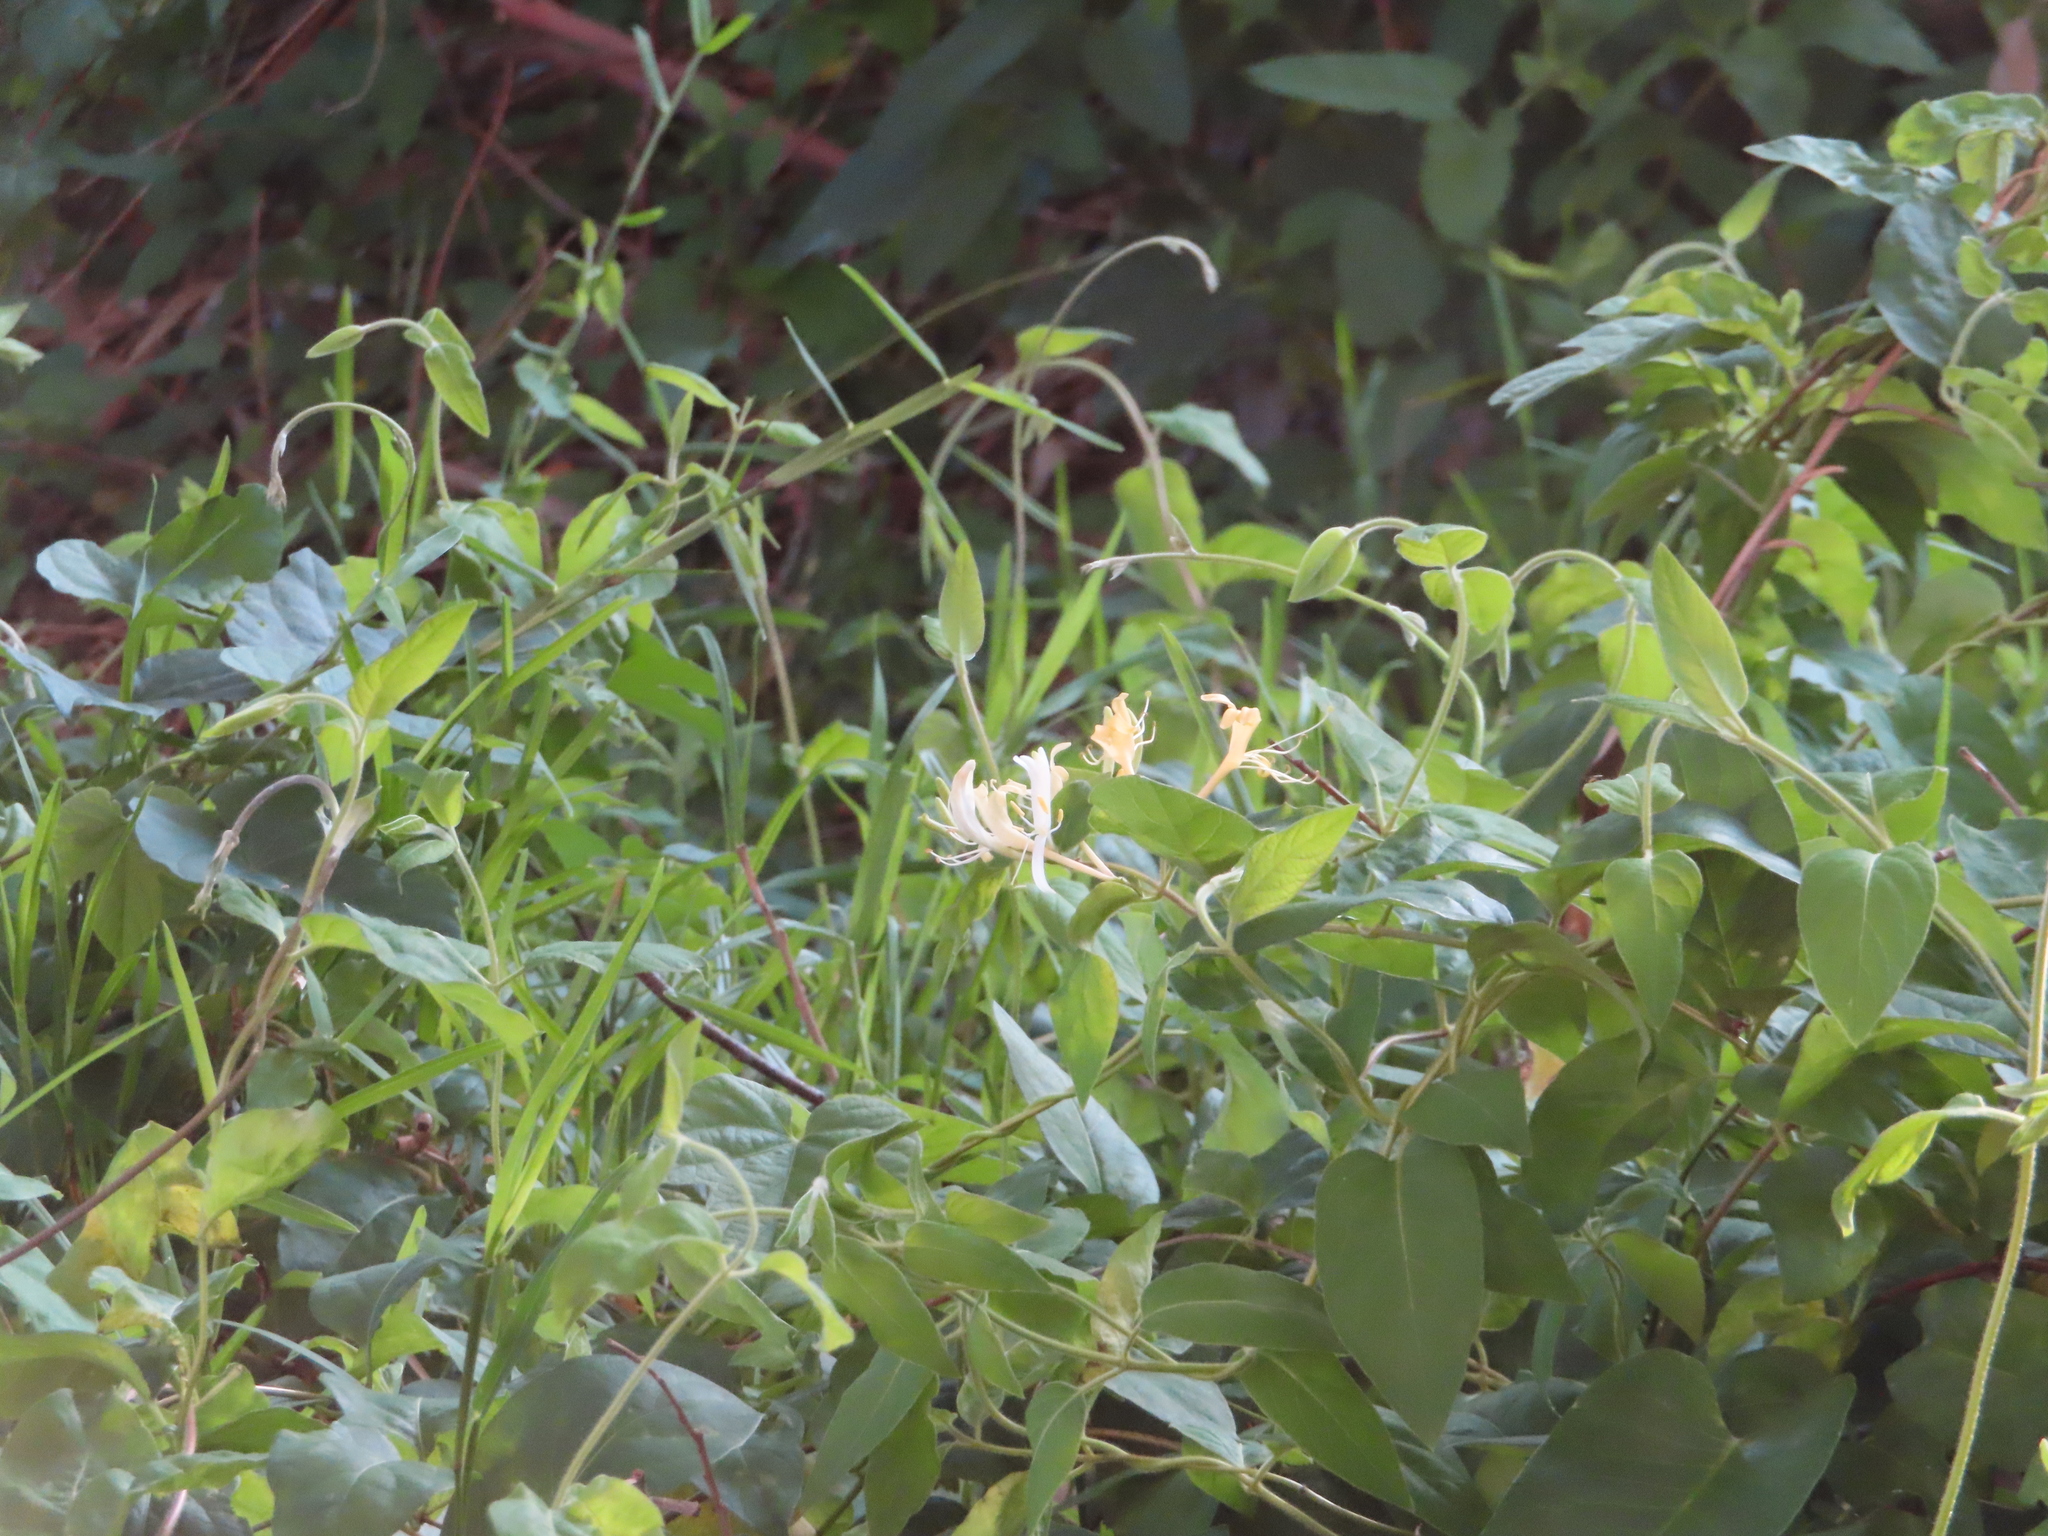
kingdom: Plantae
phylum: Tracheophyta
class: Magnoliopsida
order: Dipsacales
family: Caprifoliaceae
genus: Lonicera
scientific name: Lonicera japonica
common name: Japanese honeysuckle
